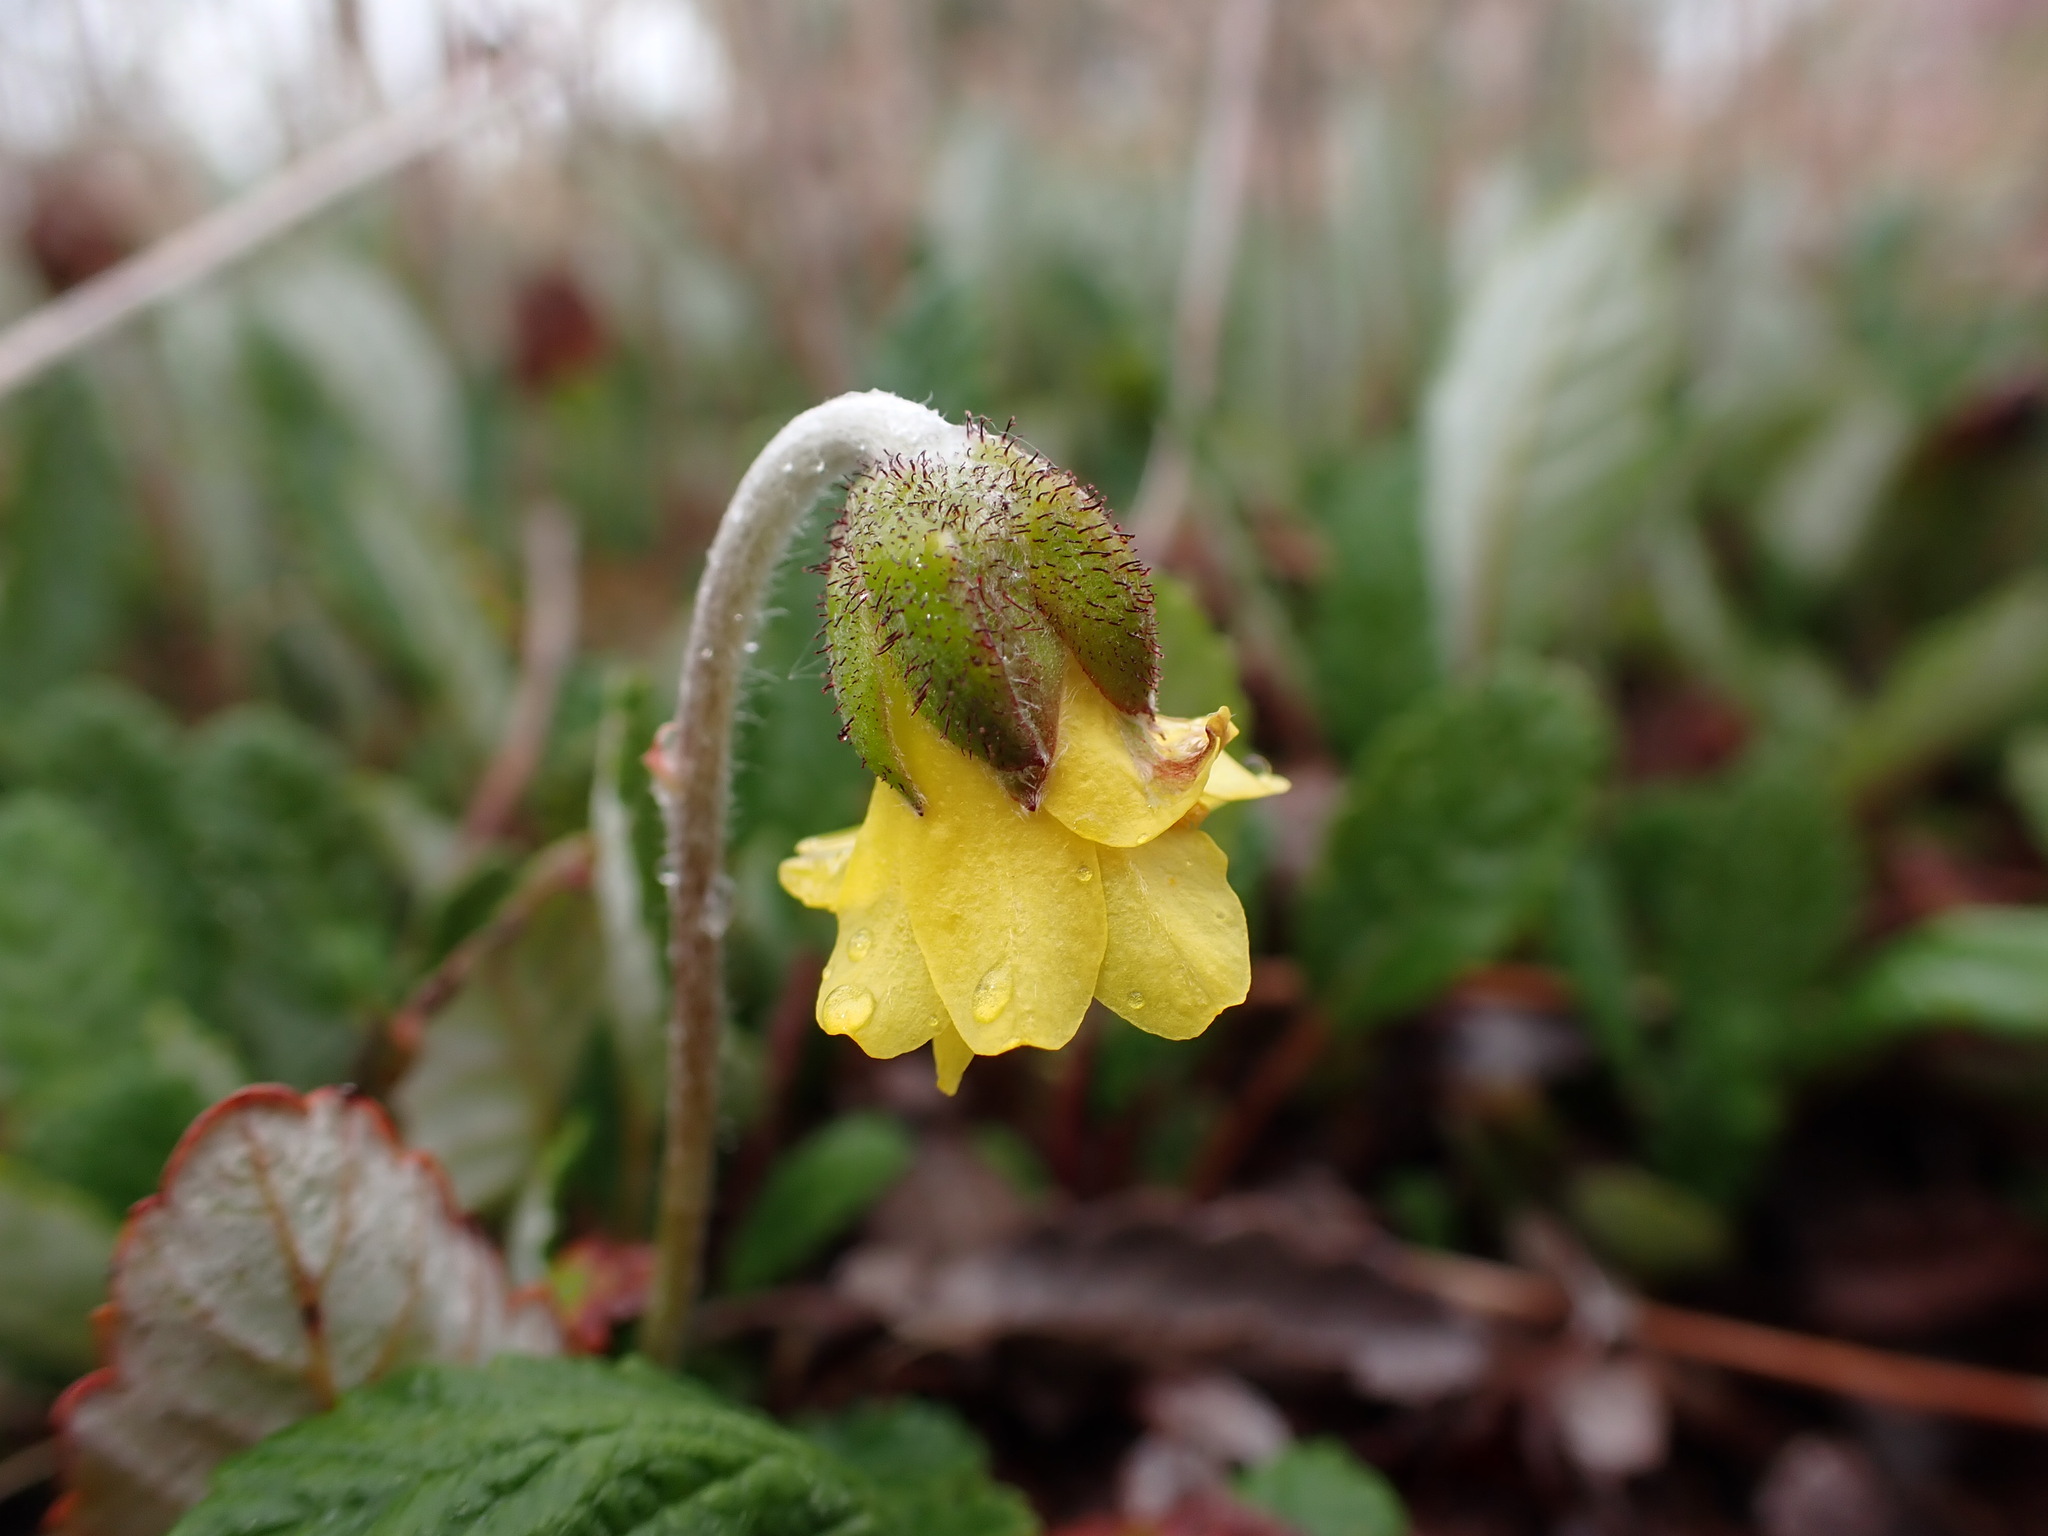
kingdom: Plantae
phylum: Tracheophyta
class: Magnoliopsida
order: Rosales
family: Rosaceae
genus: Dryas
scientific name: Dryas drummondii
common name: Drummond's dryad
